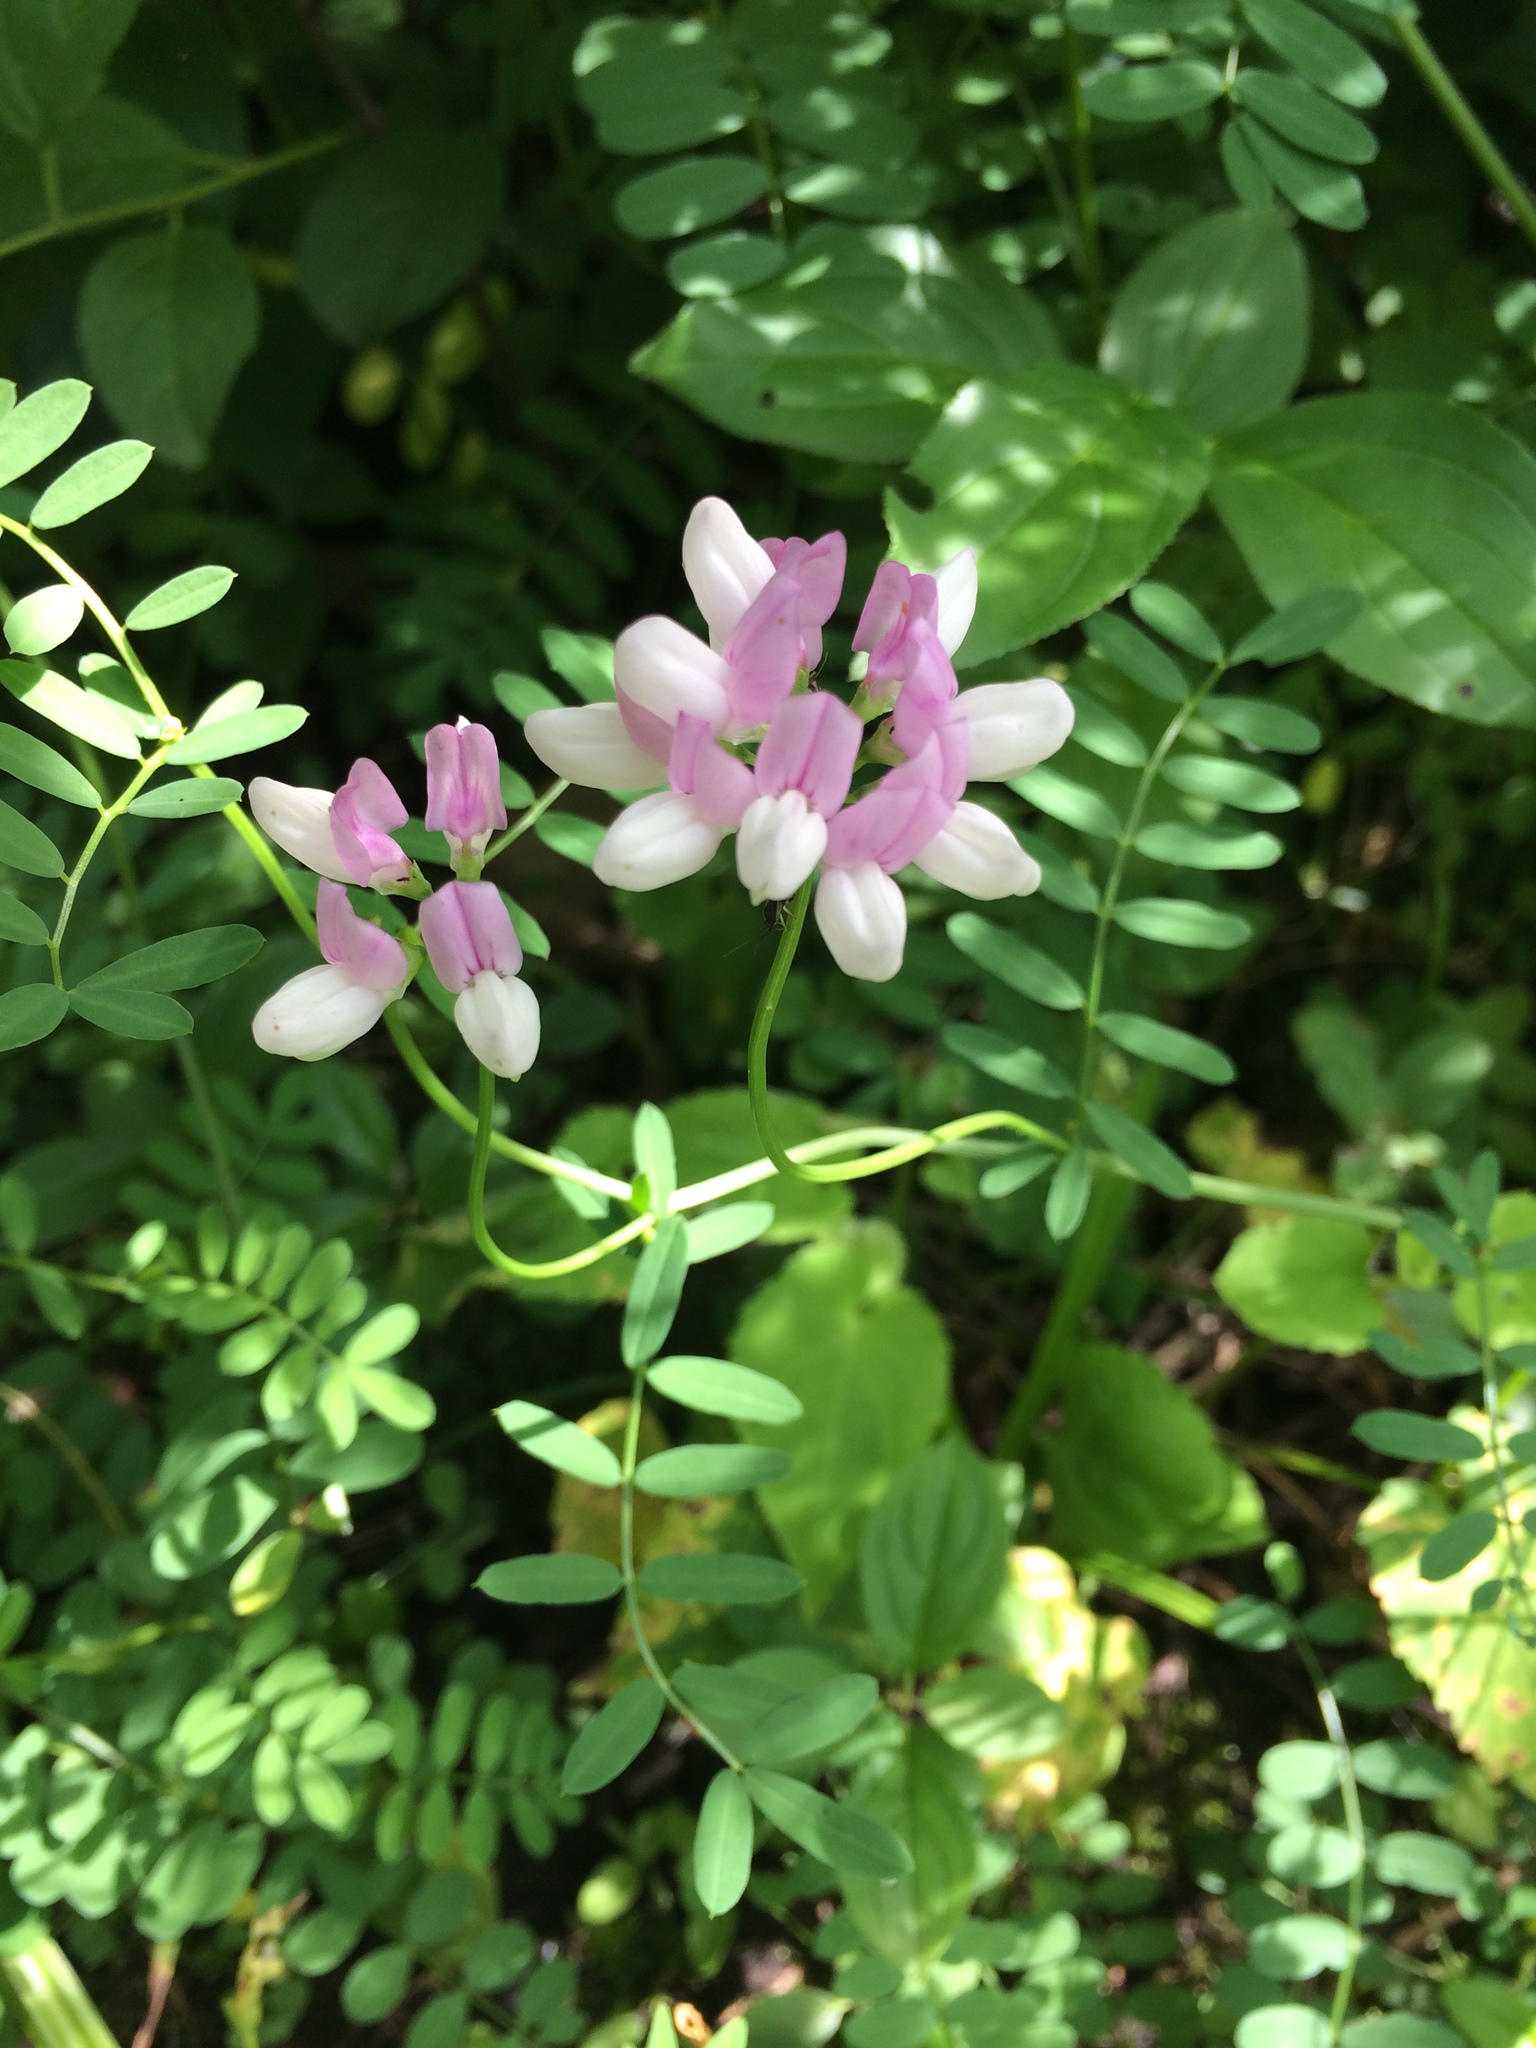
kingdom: Plantae
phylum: Tracheophyta
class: Magnoliopsida
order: Fabales
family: Fabaceae
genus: Coronilla
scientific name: Coronilla varia
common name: Crownvetch
